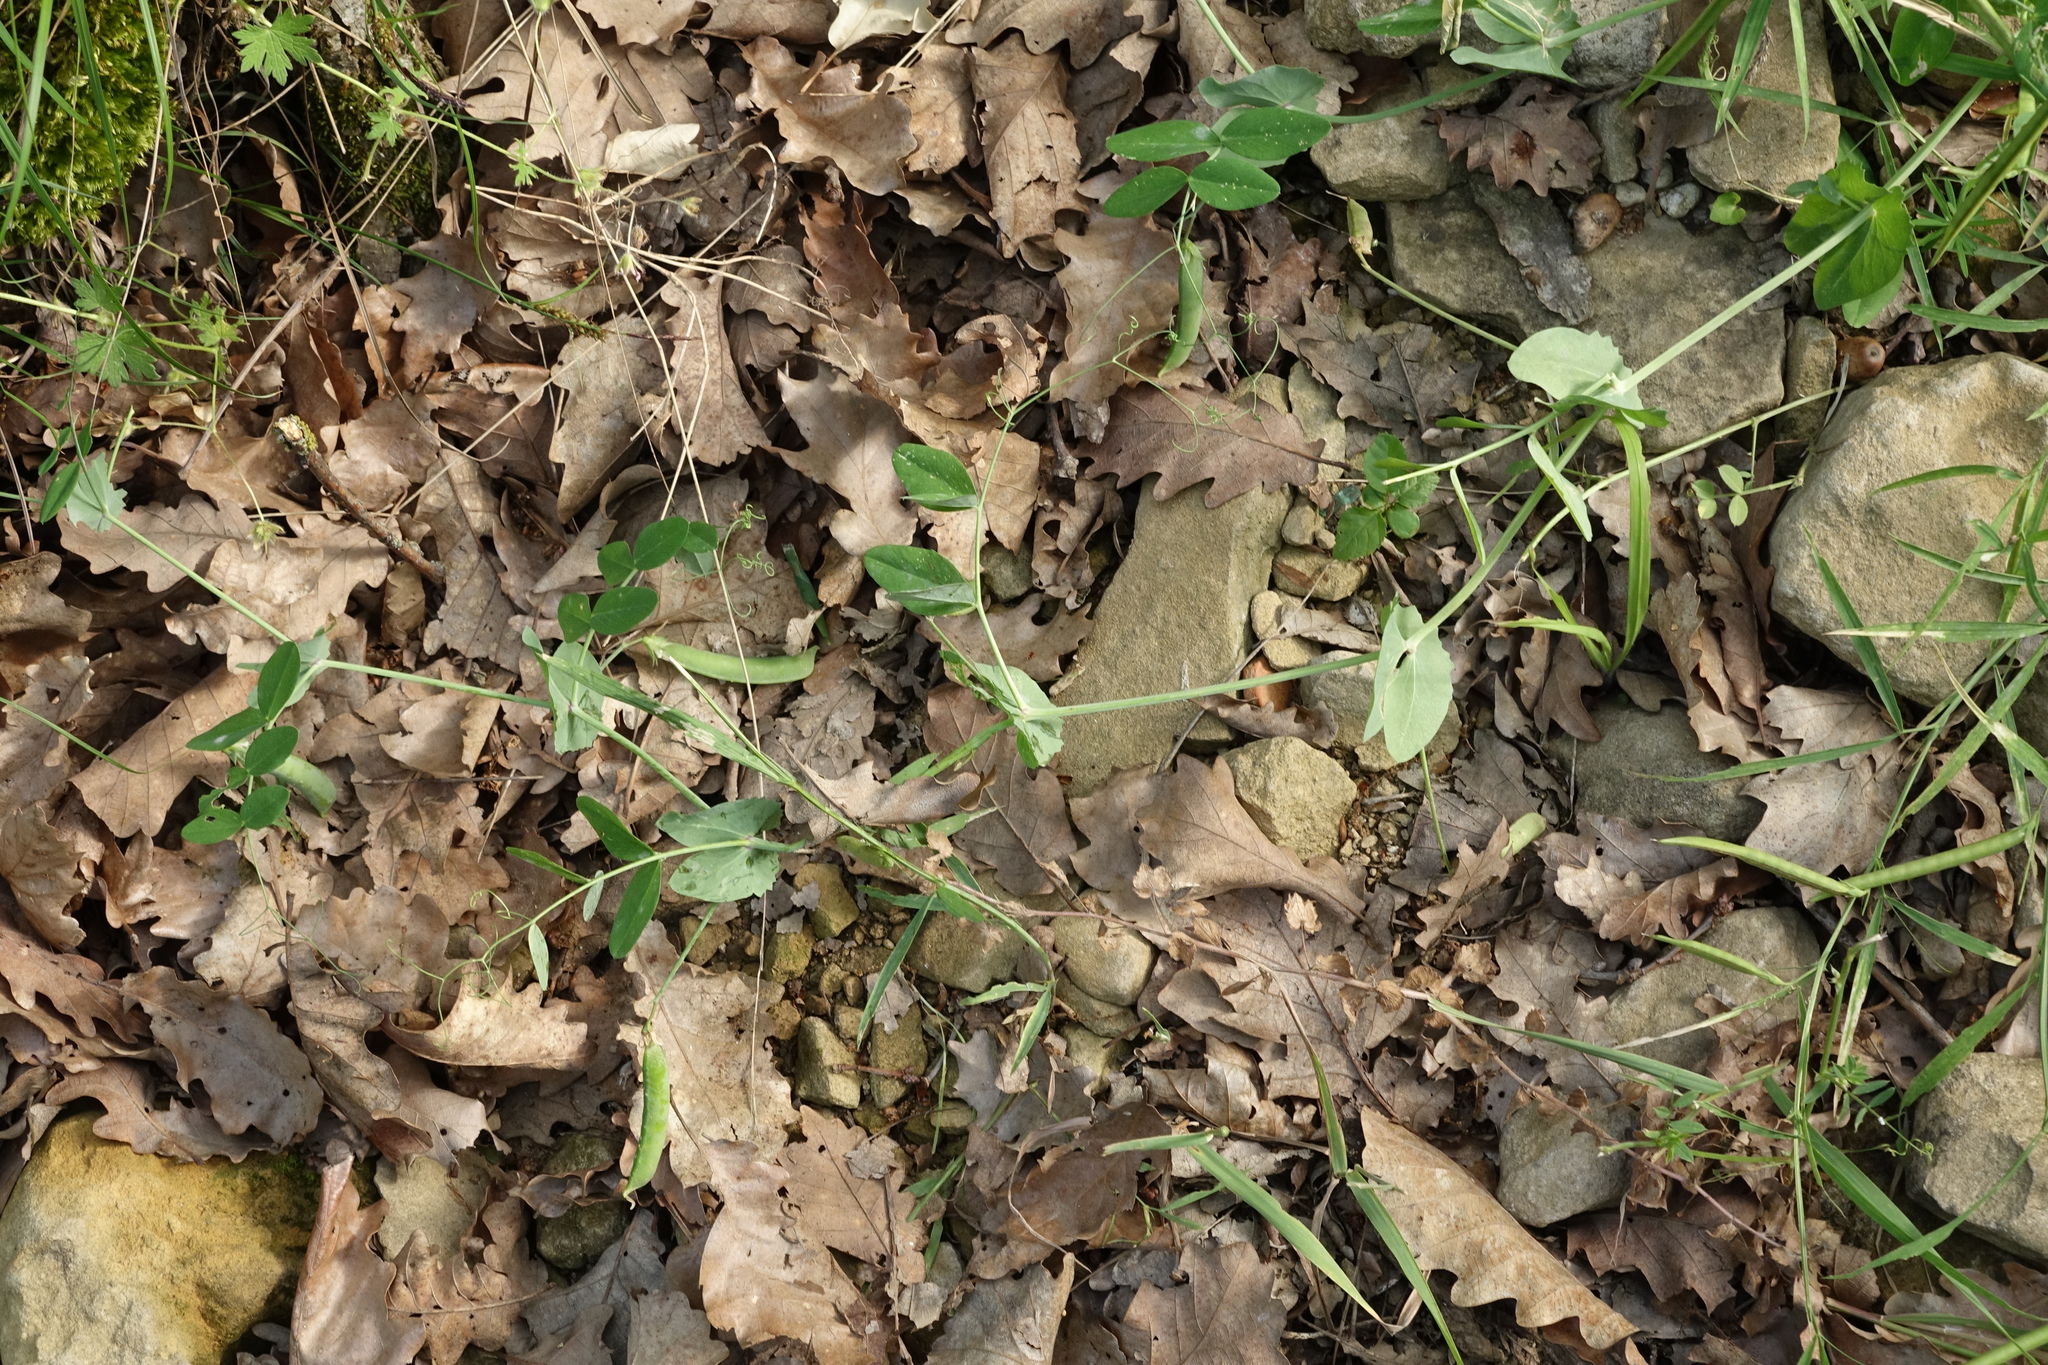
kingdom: Plantae
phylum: Tracheophyta
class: Magnoliopsida
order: Fabales
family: Fabaceae
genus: Lathyrus
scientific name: Lathyrus oleraceus
